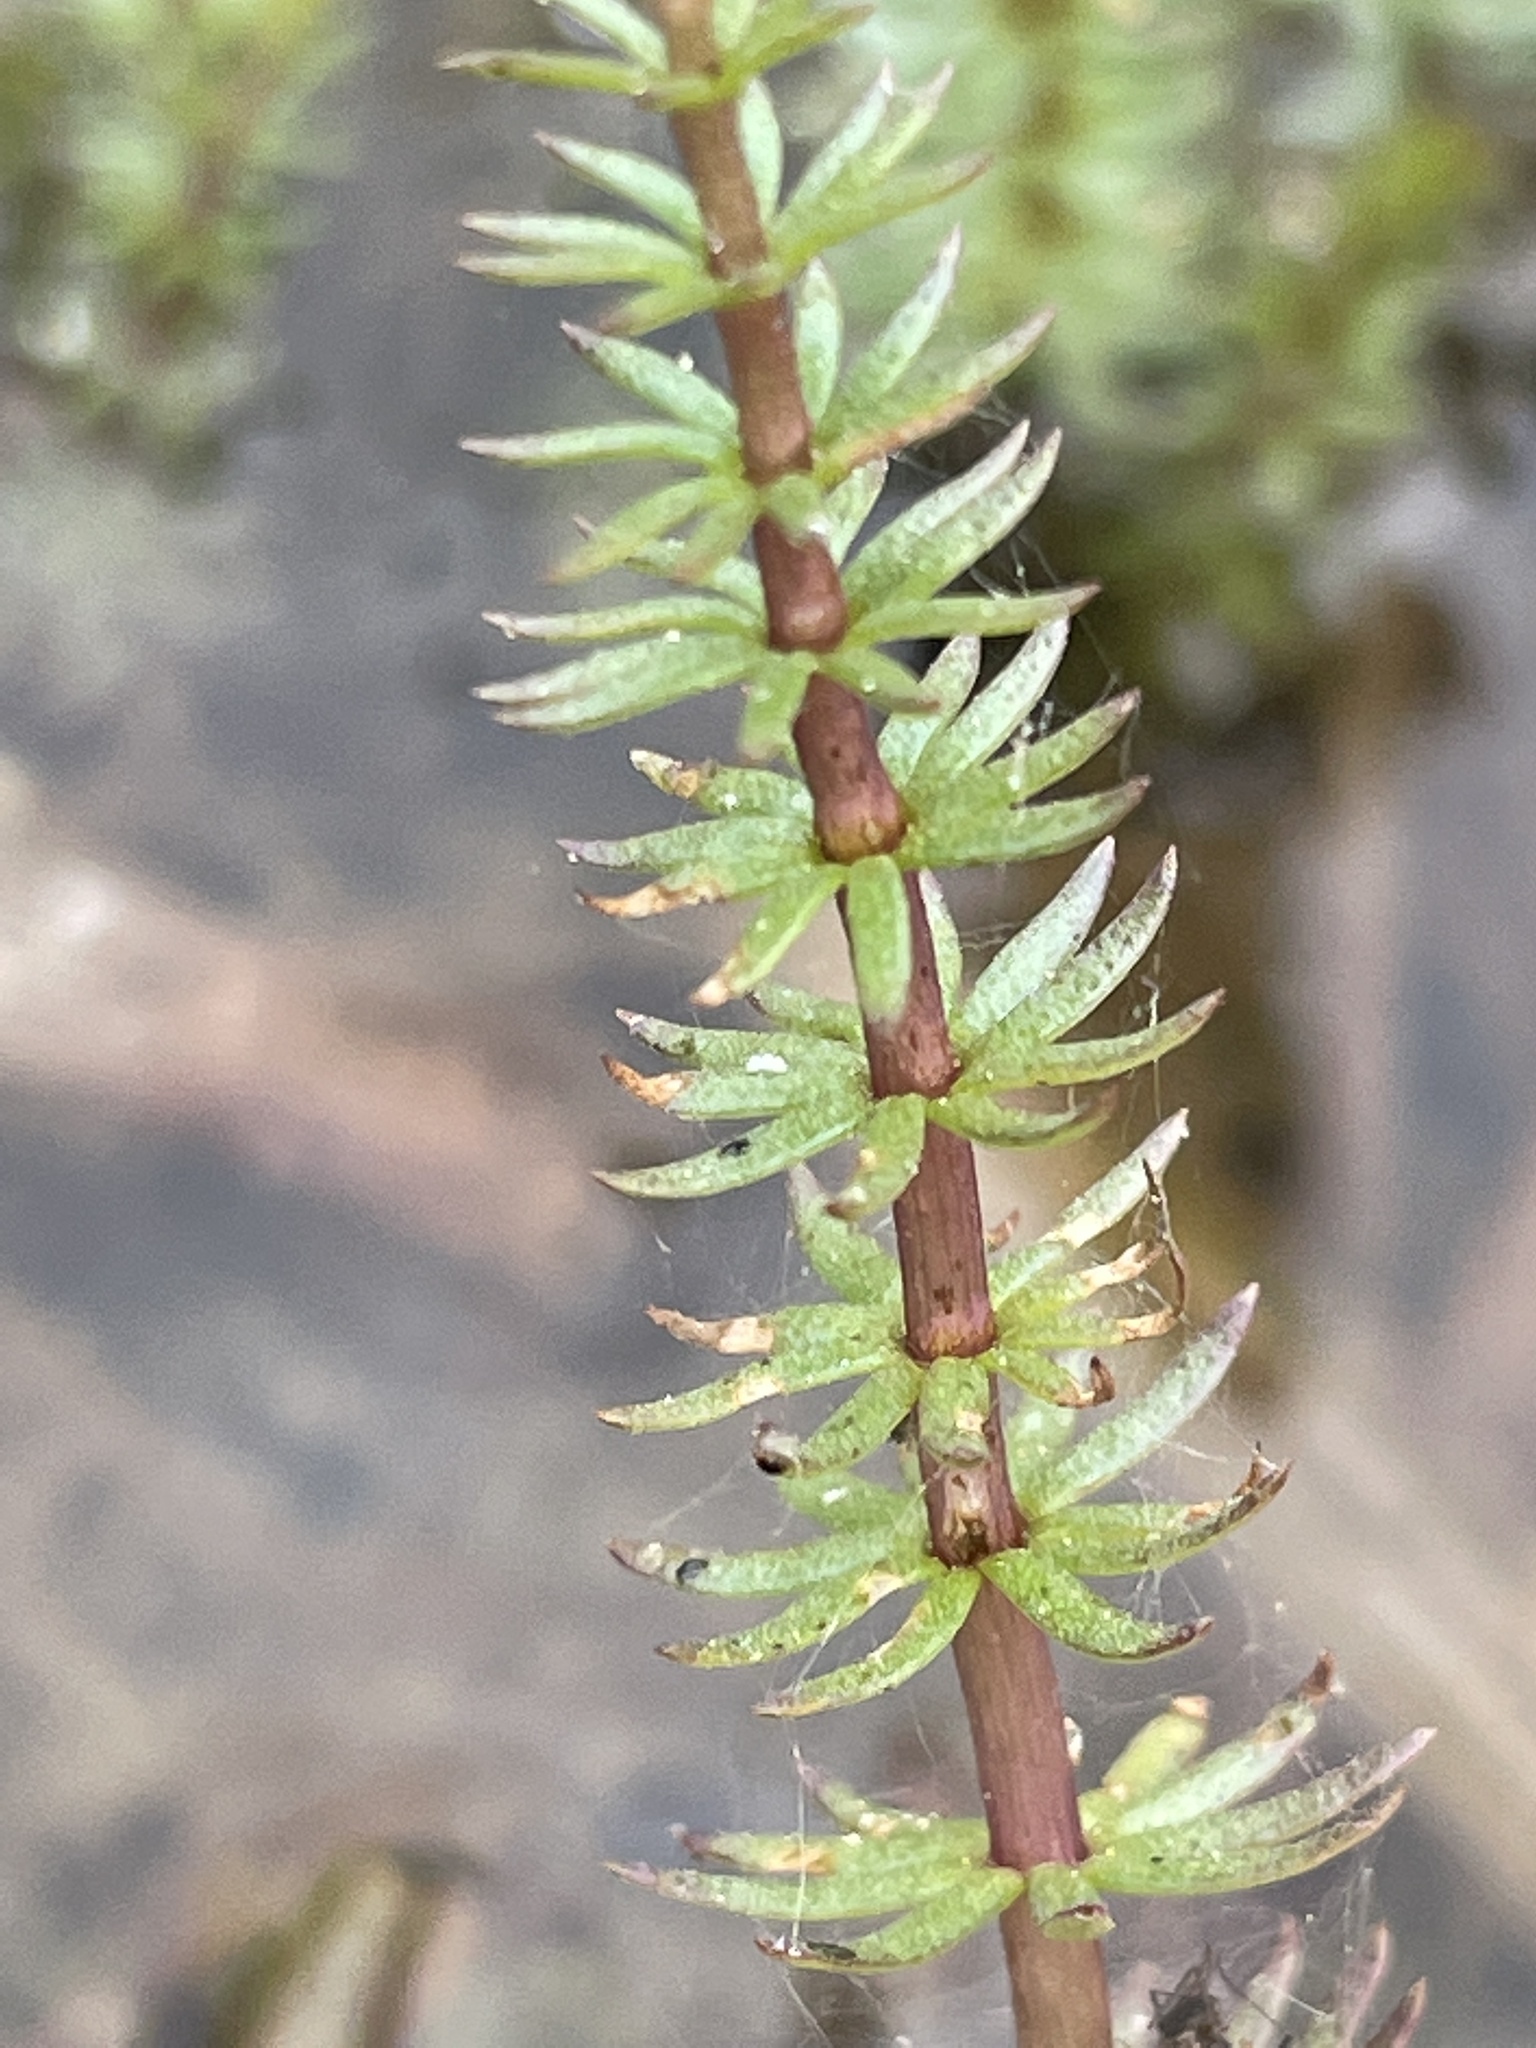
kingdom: Plantae
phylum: Tracheophyta
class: Magnoliopsida
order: Lamiales
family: Plantaginaceae
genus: Hippuris
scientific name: Hippuris vulgaris
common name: Mare's-tail
